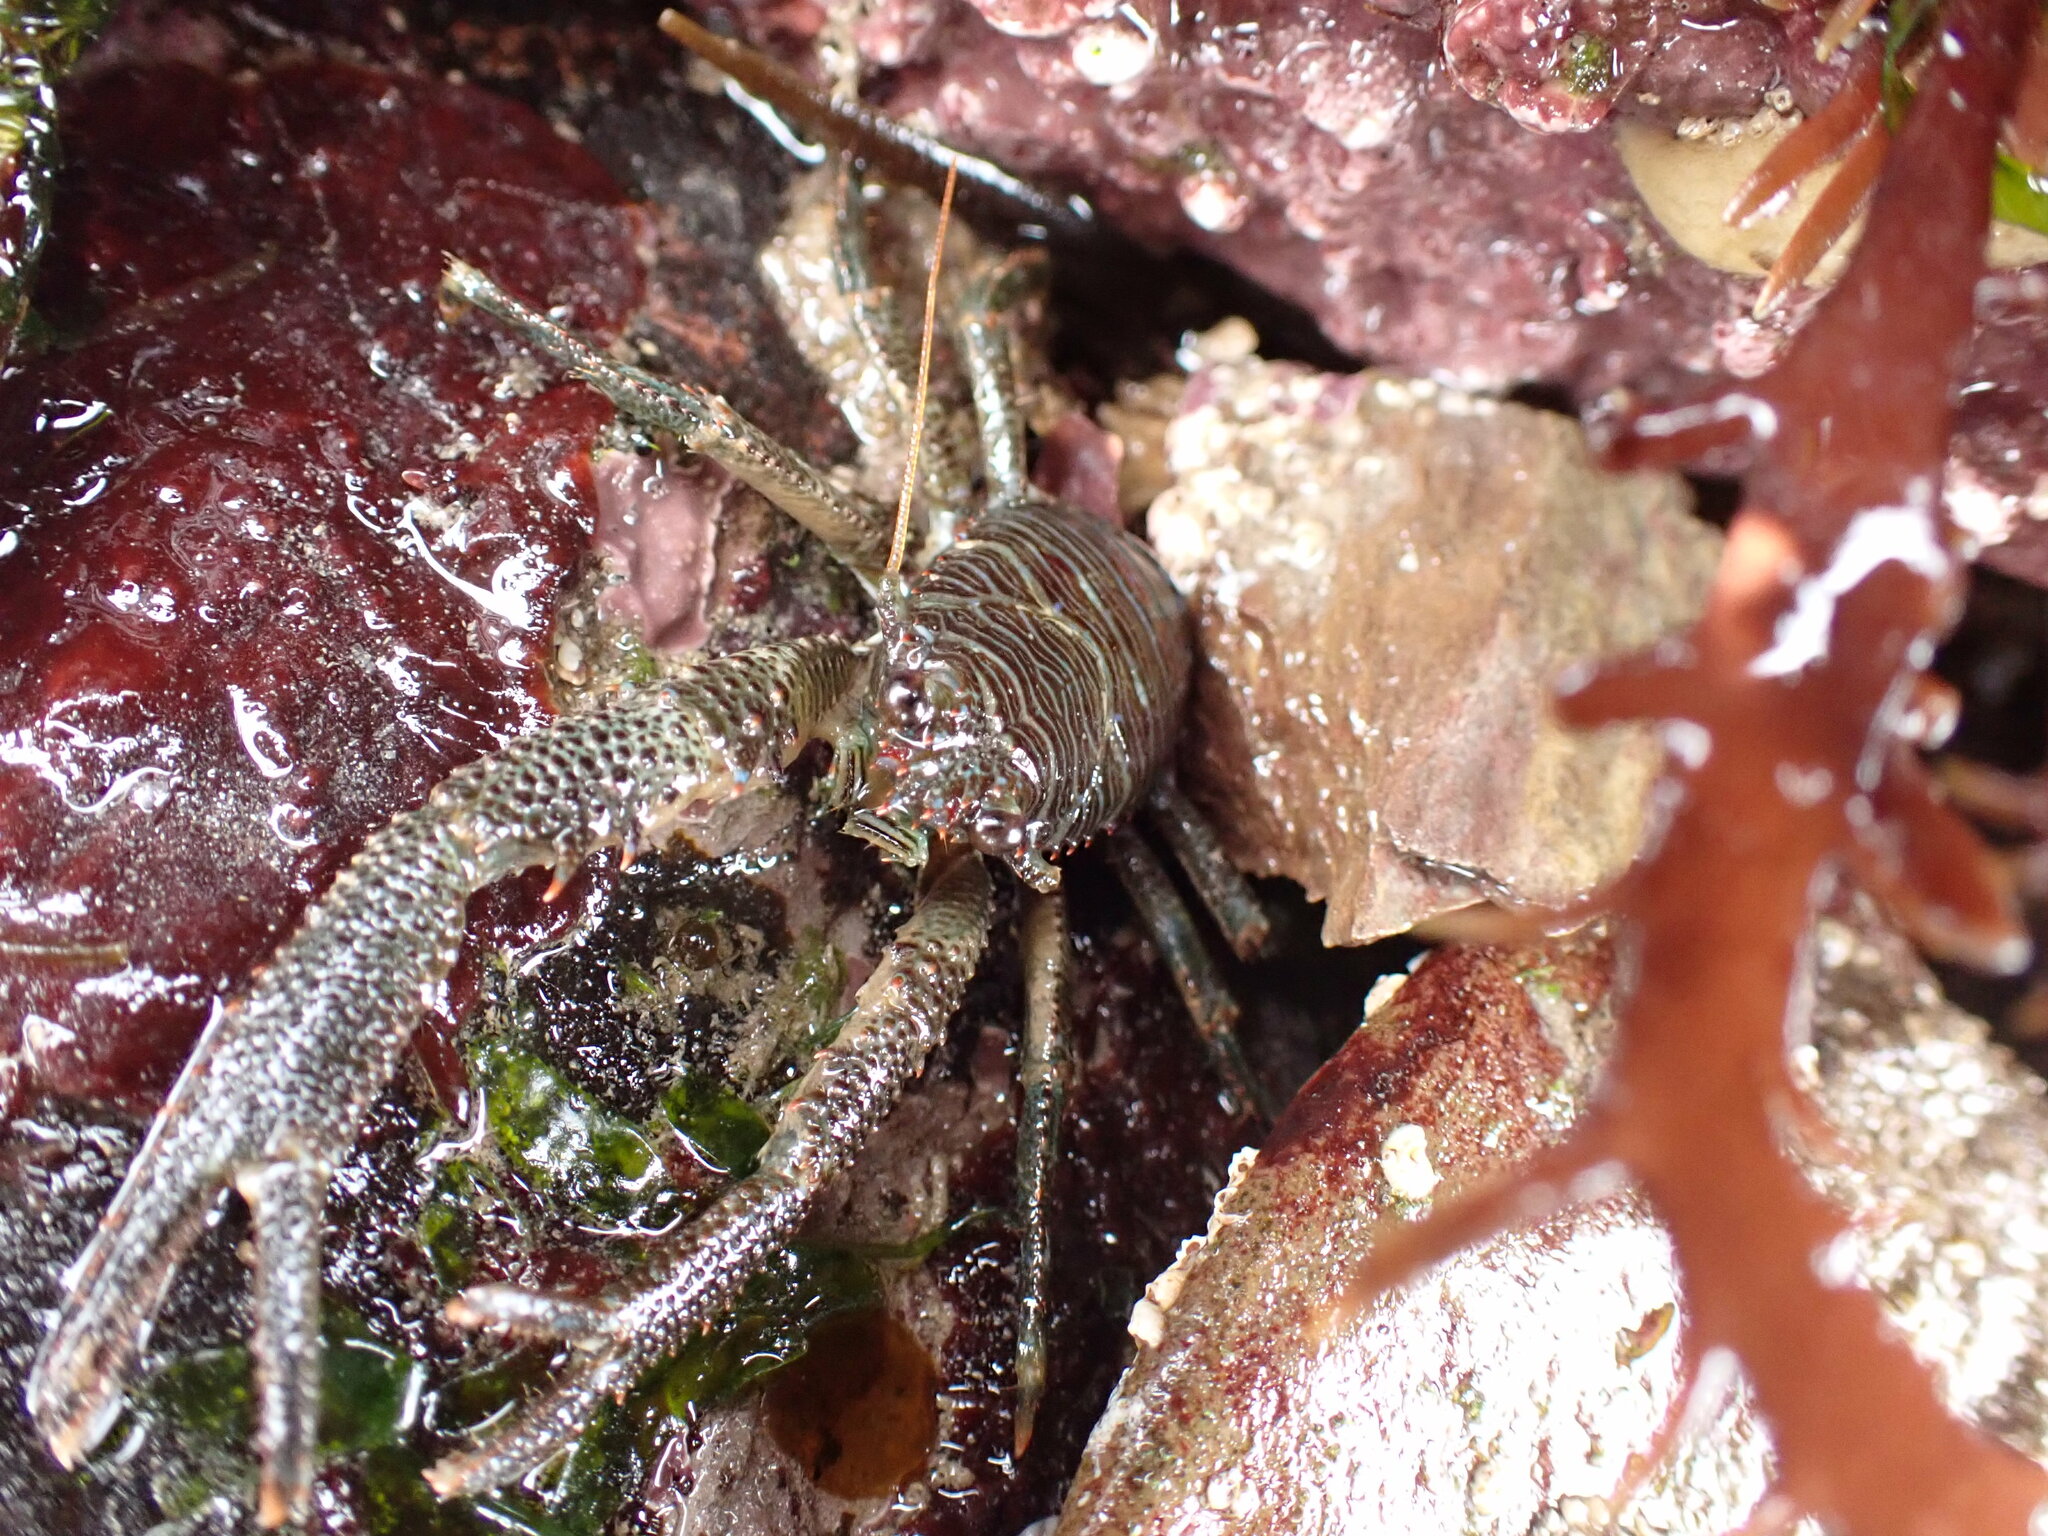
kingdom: Animalia
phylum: Arthropoda
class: Malacostraca
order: Decapoda
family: Galatheidae
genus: Galathea
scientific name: Galathea squamifera
